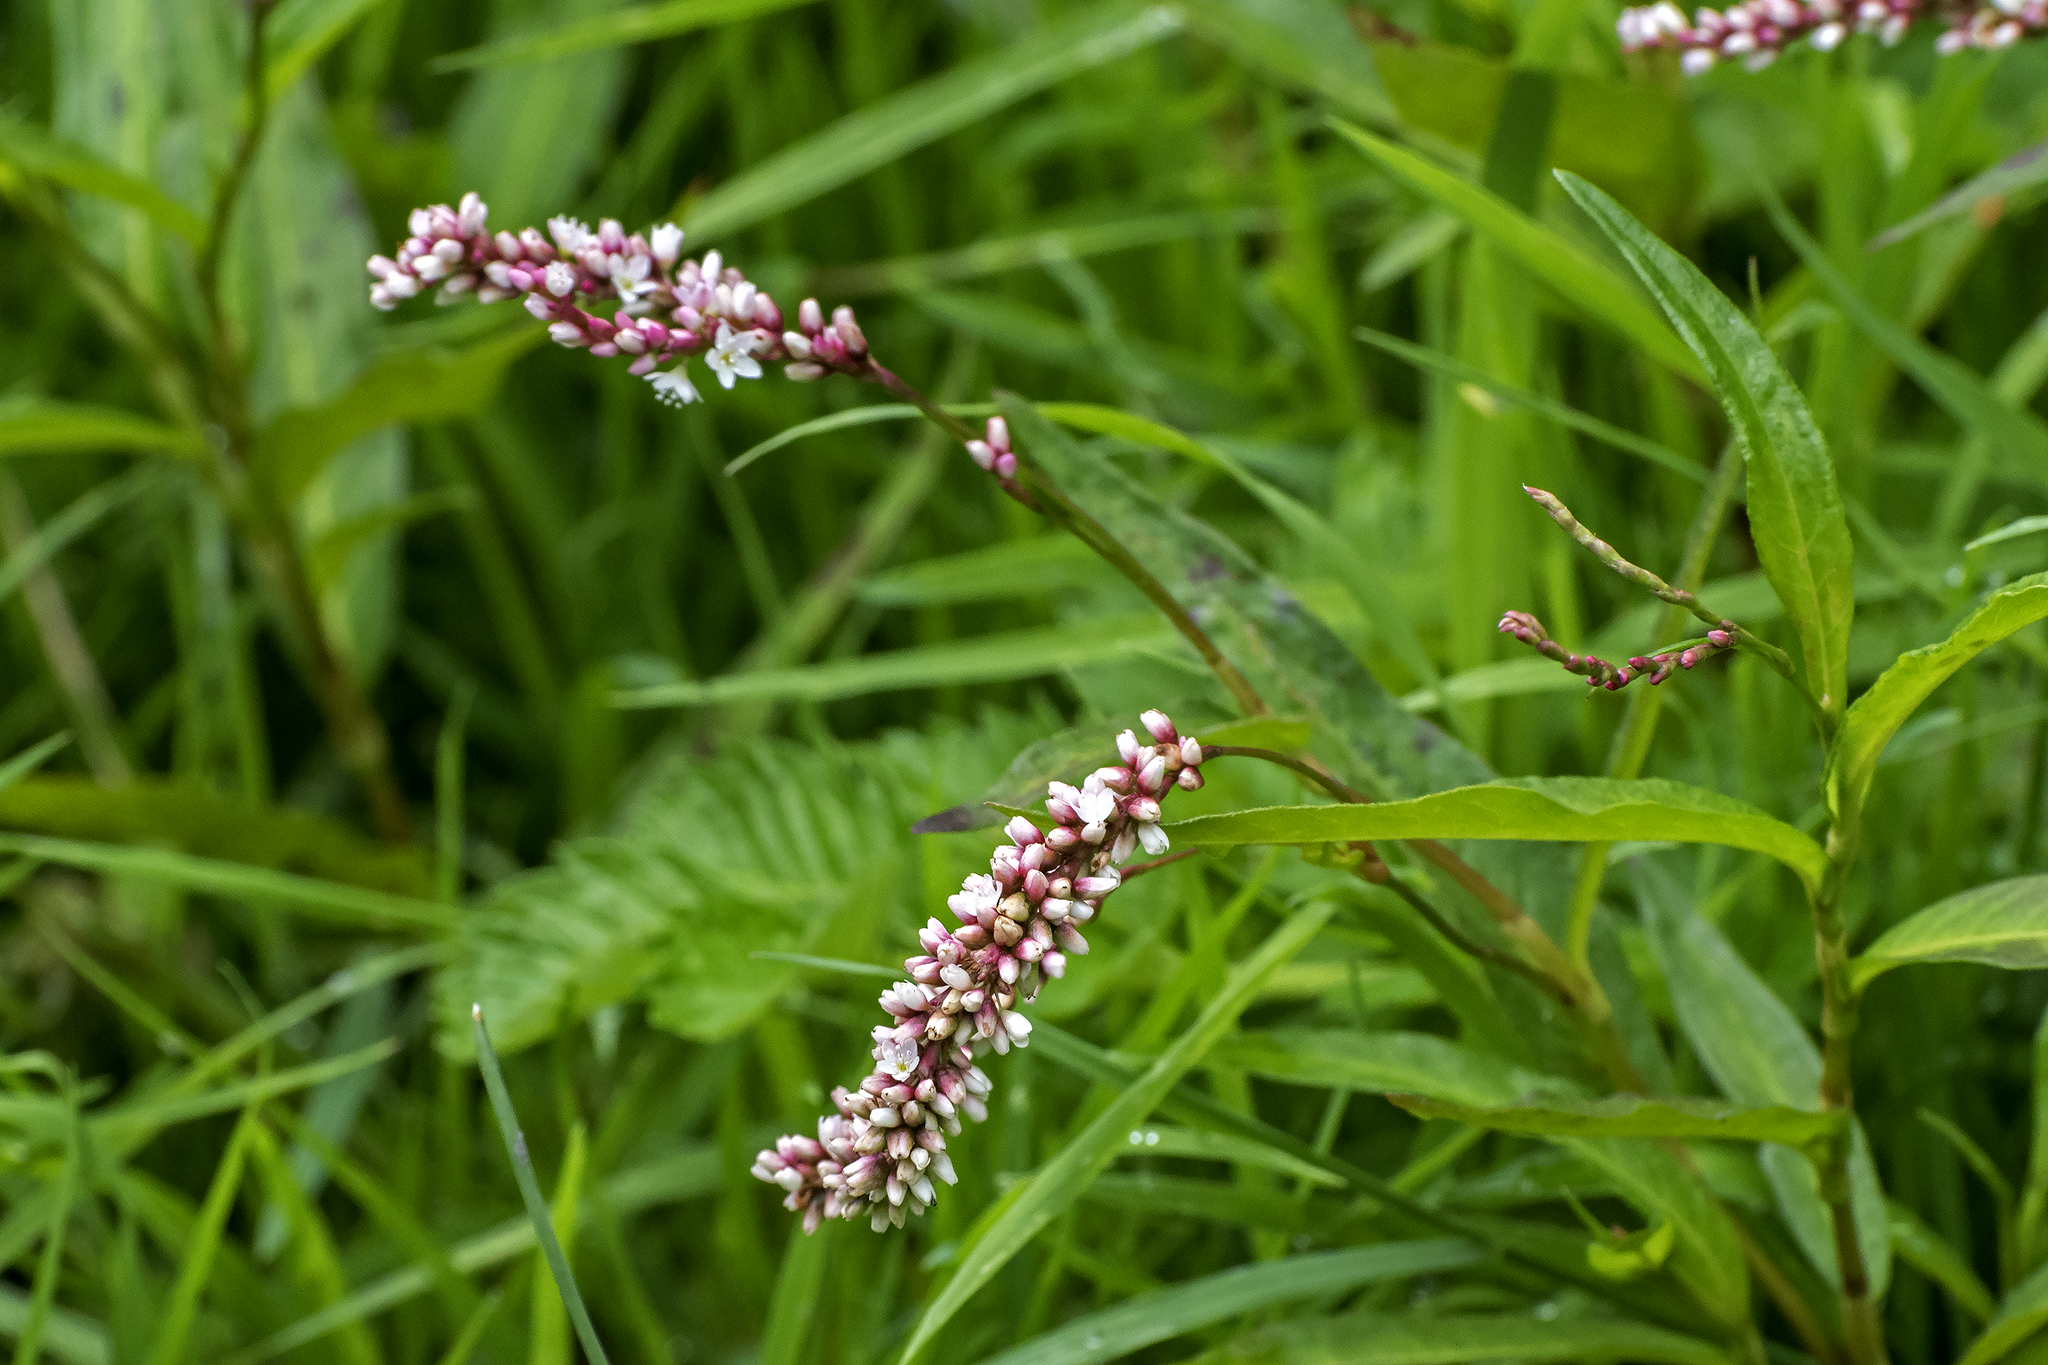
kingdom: Plantae
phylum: Tracheophyta
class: Magnoliopsida
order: Caryophyllales
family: Polygonaceae
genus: Persicaria
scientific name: Persicaria hydropiperoides
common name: Swamp smartweed
